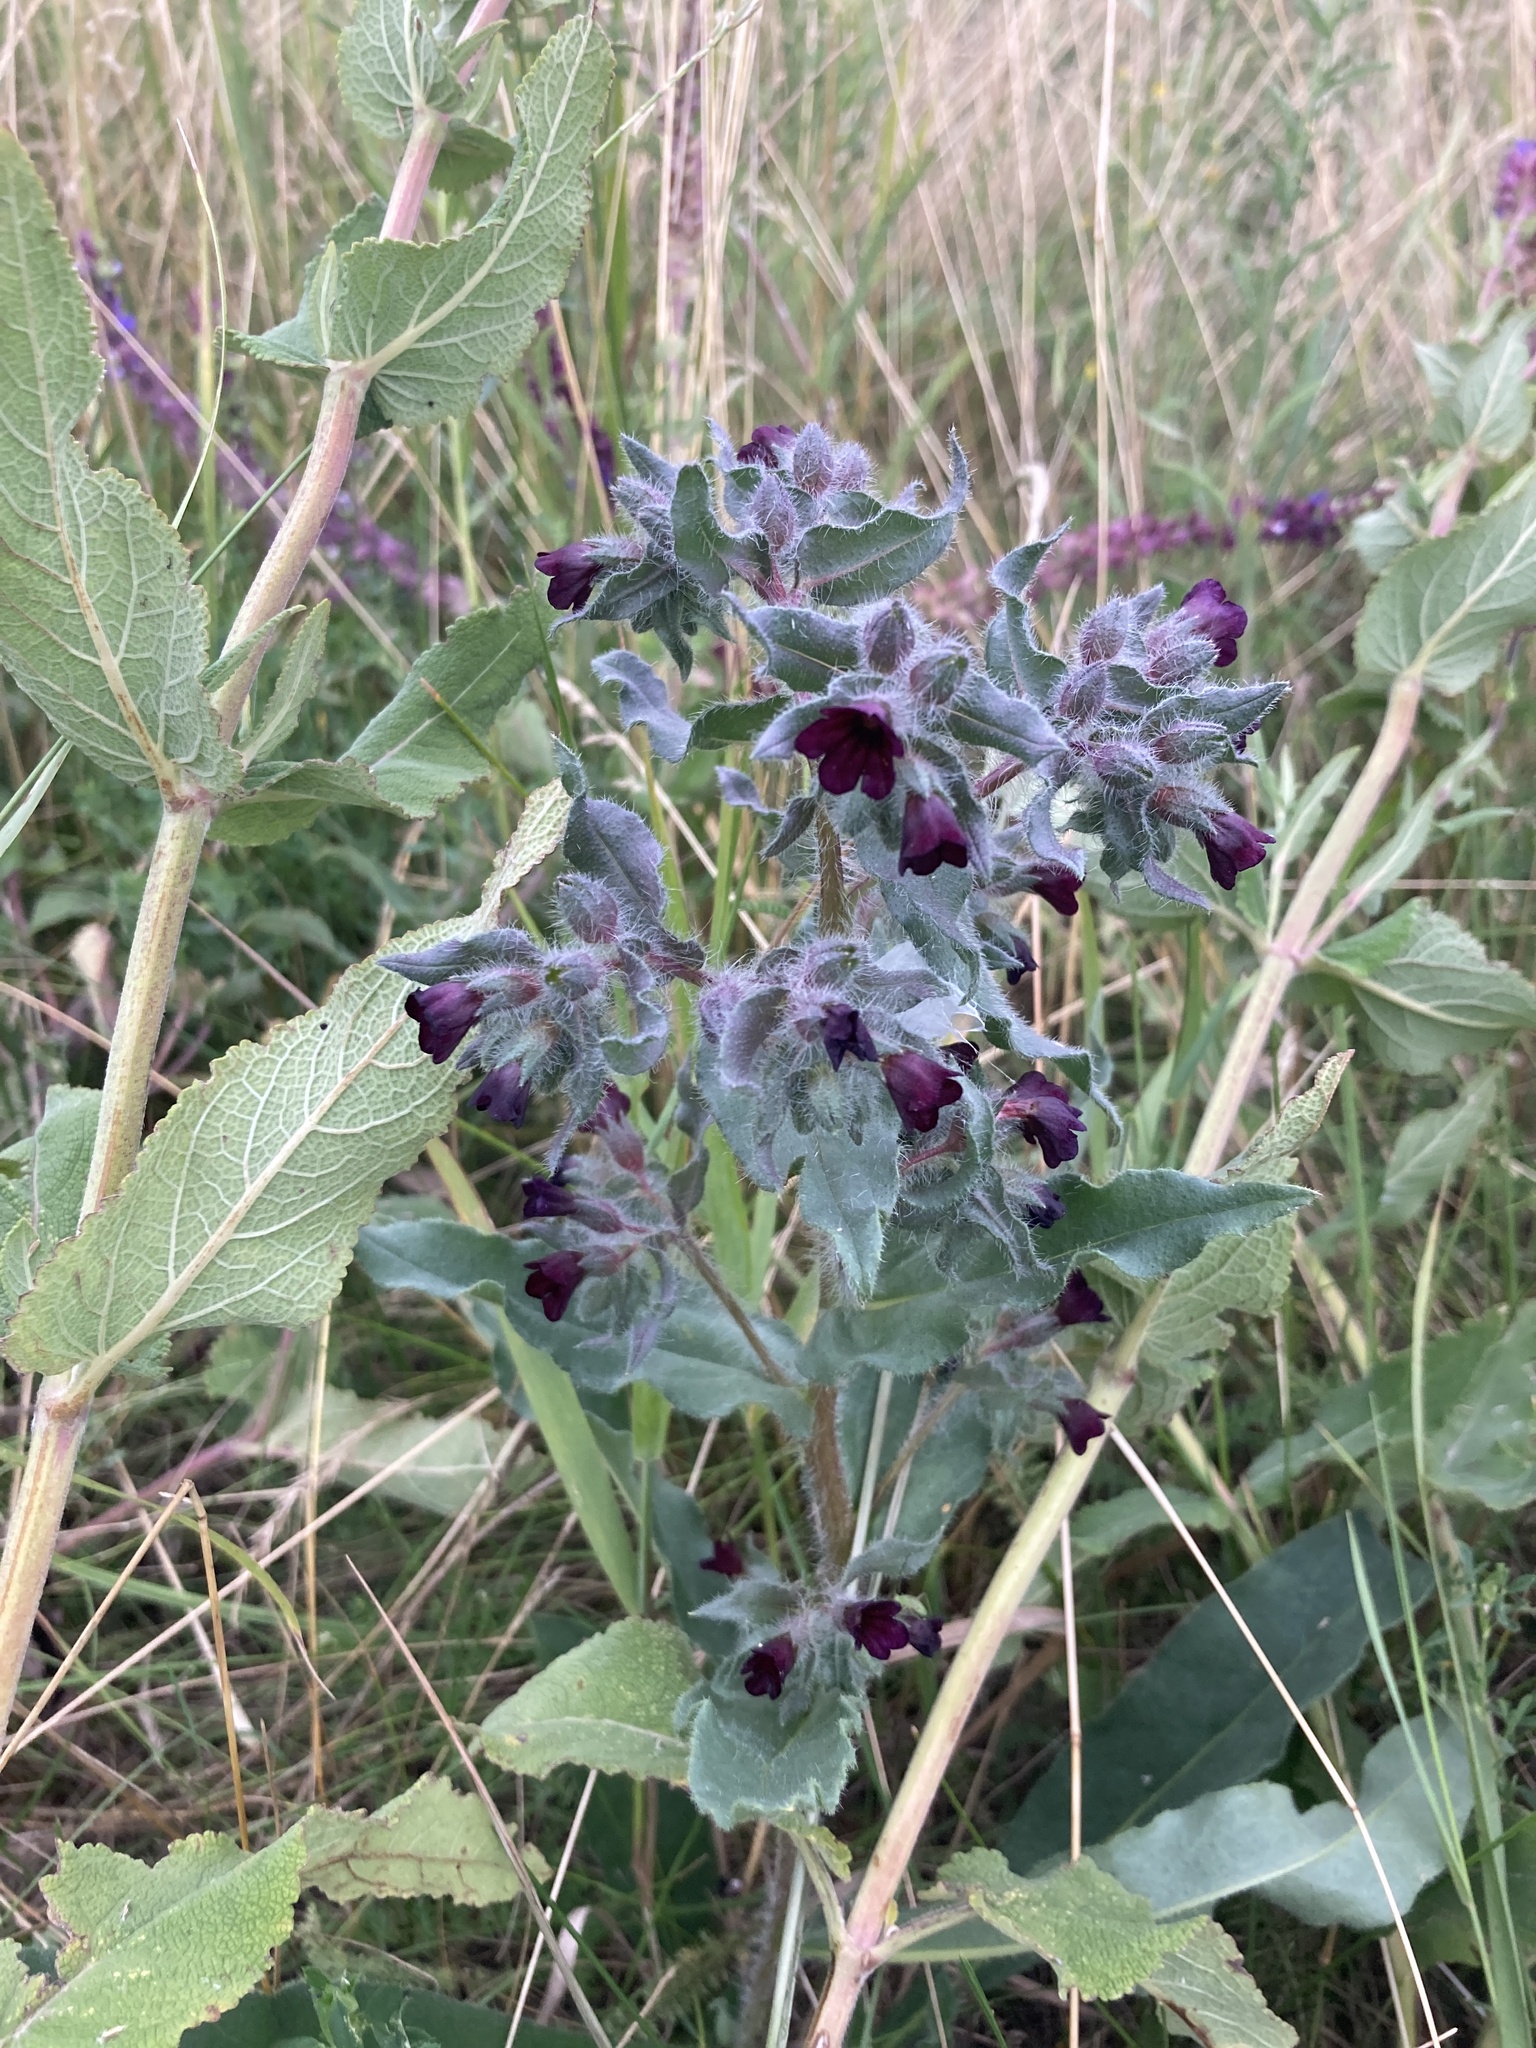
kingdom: Plantae
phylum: Tracheophyta
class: Magnoliopsida
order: Boraginales
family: Boraginaceae
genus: Nonea
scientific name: Nonea pulla
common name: Brown nonea
